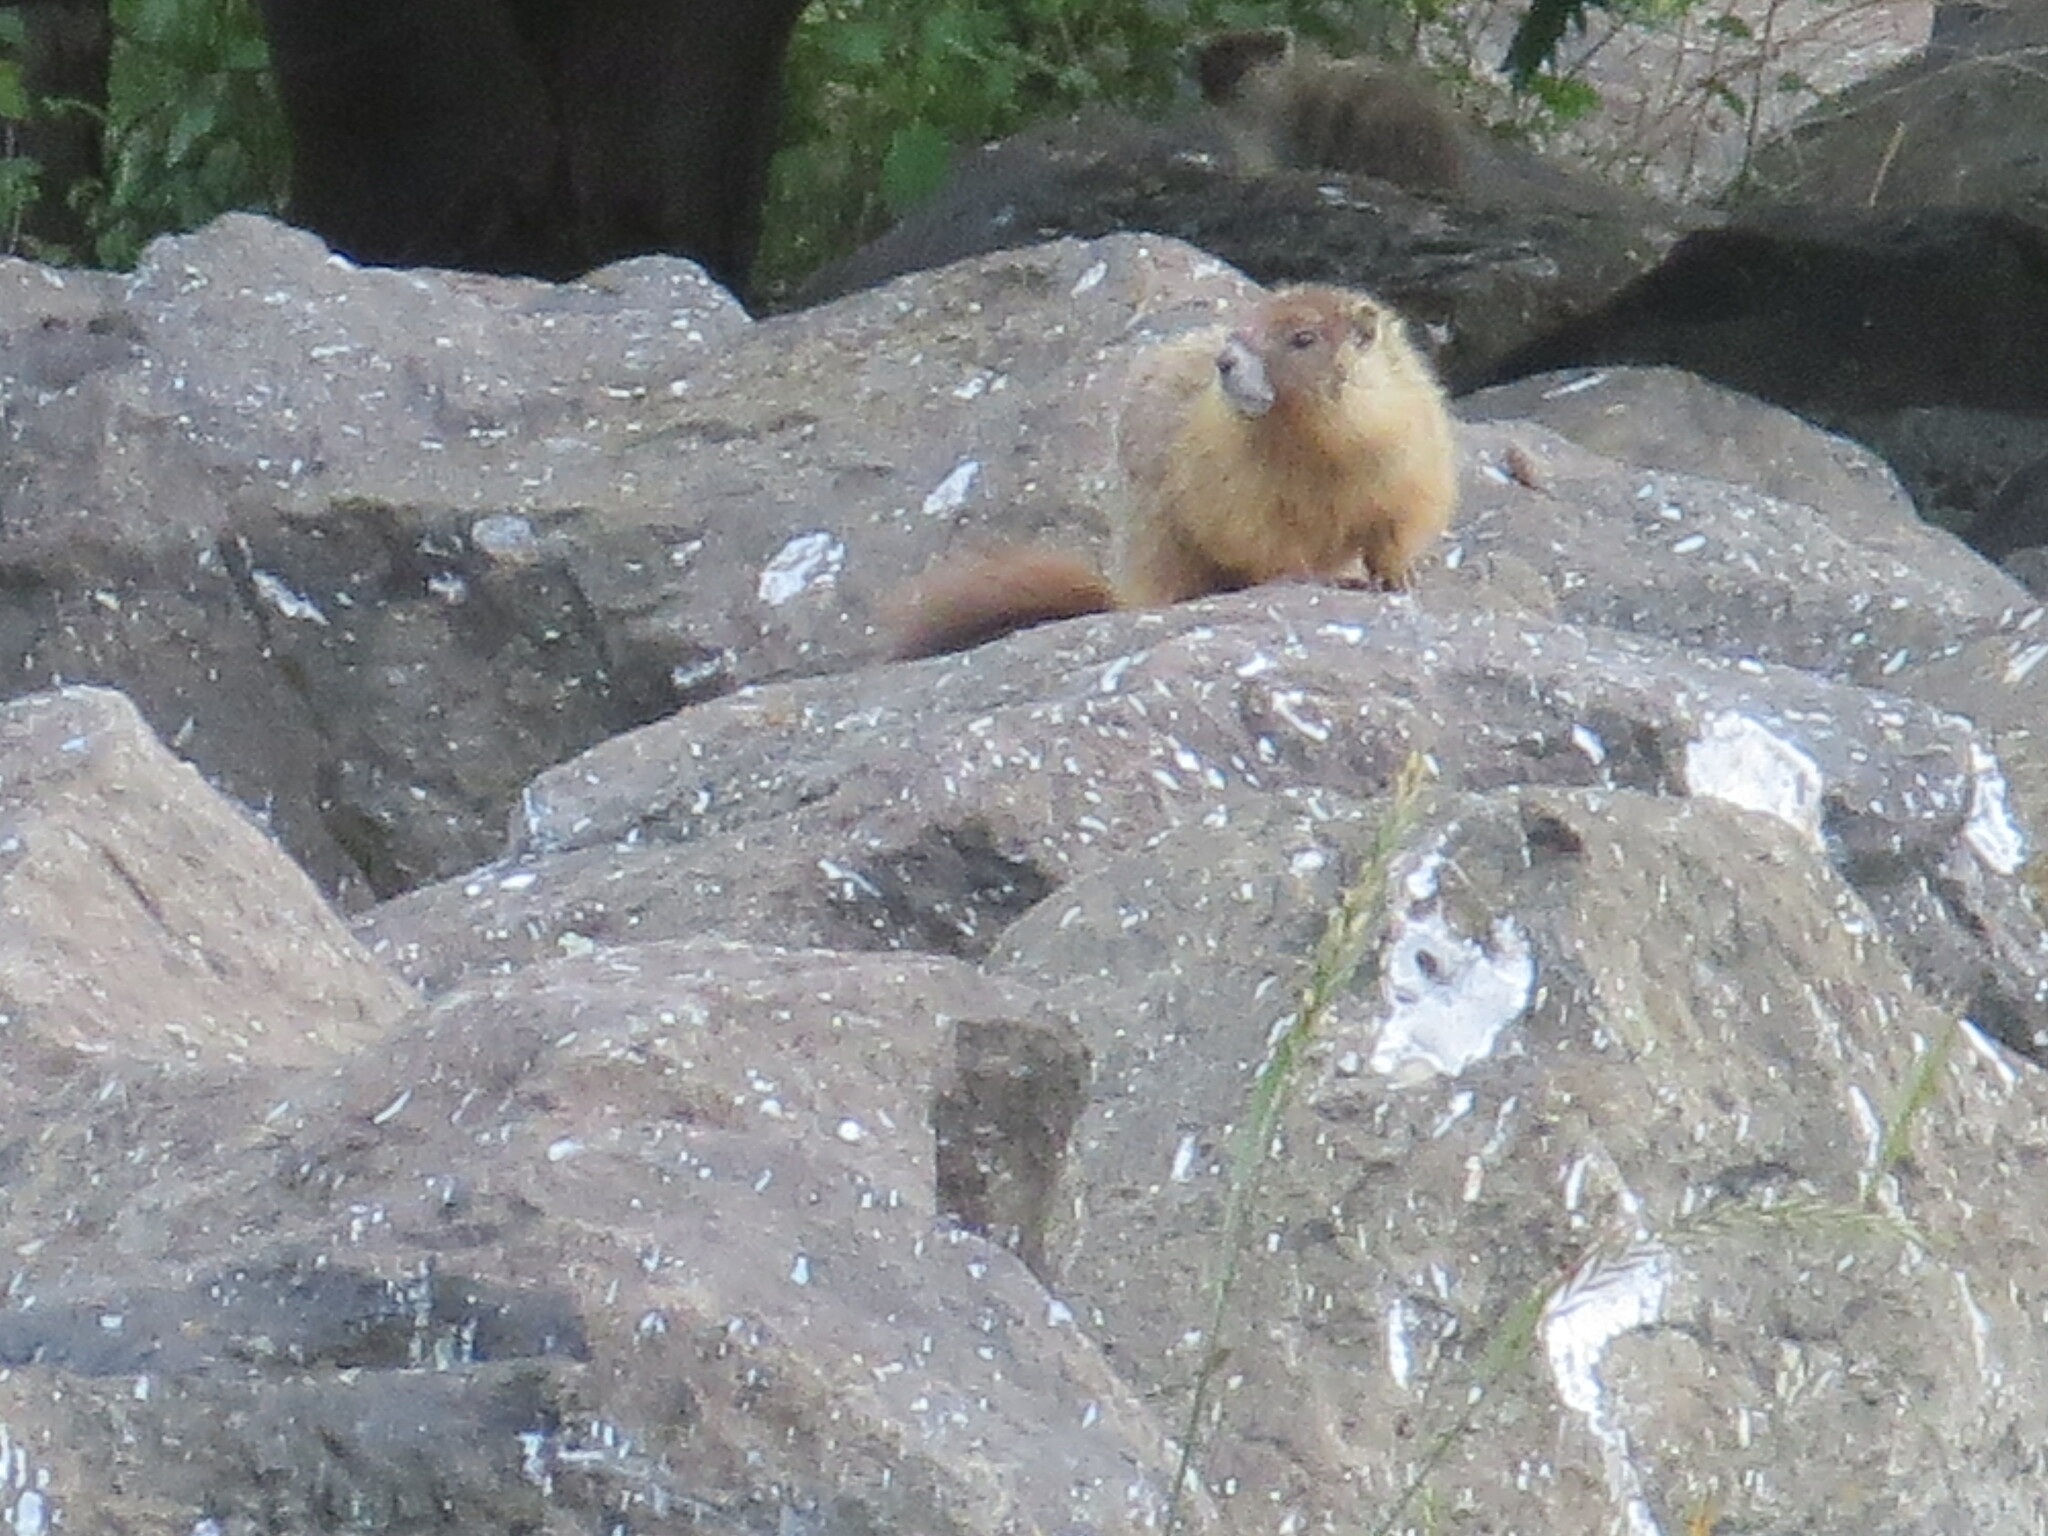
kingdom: Animalia
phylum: Chordata
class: Mammalia
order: Rodentia
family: Sciuridae
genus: Marmota
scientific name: Marmota flaviventris
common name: Yellow-bellied marmot
